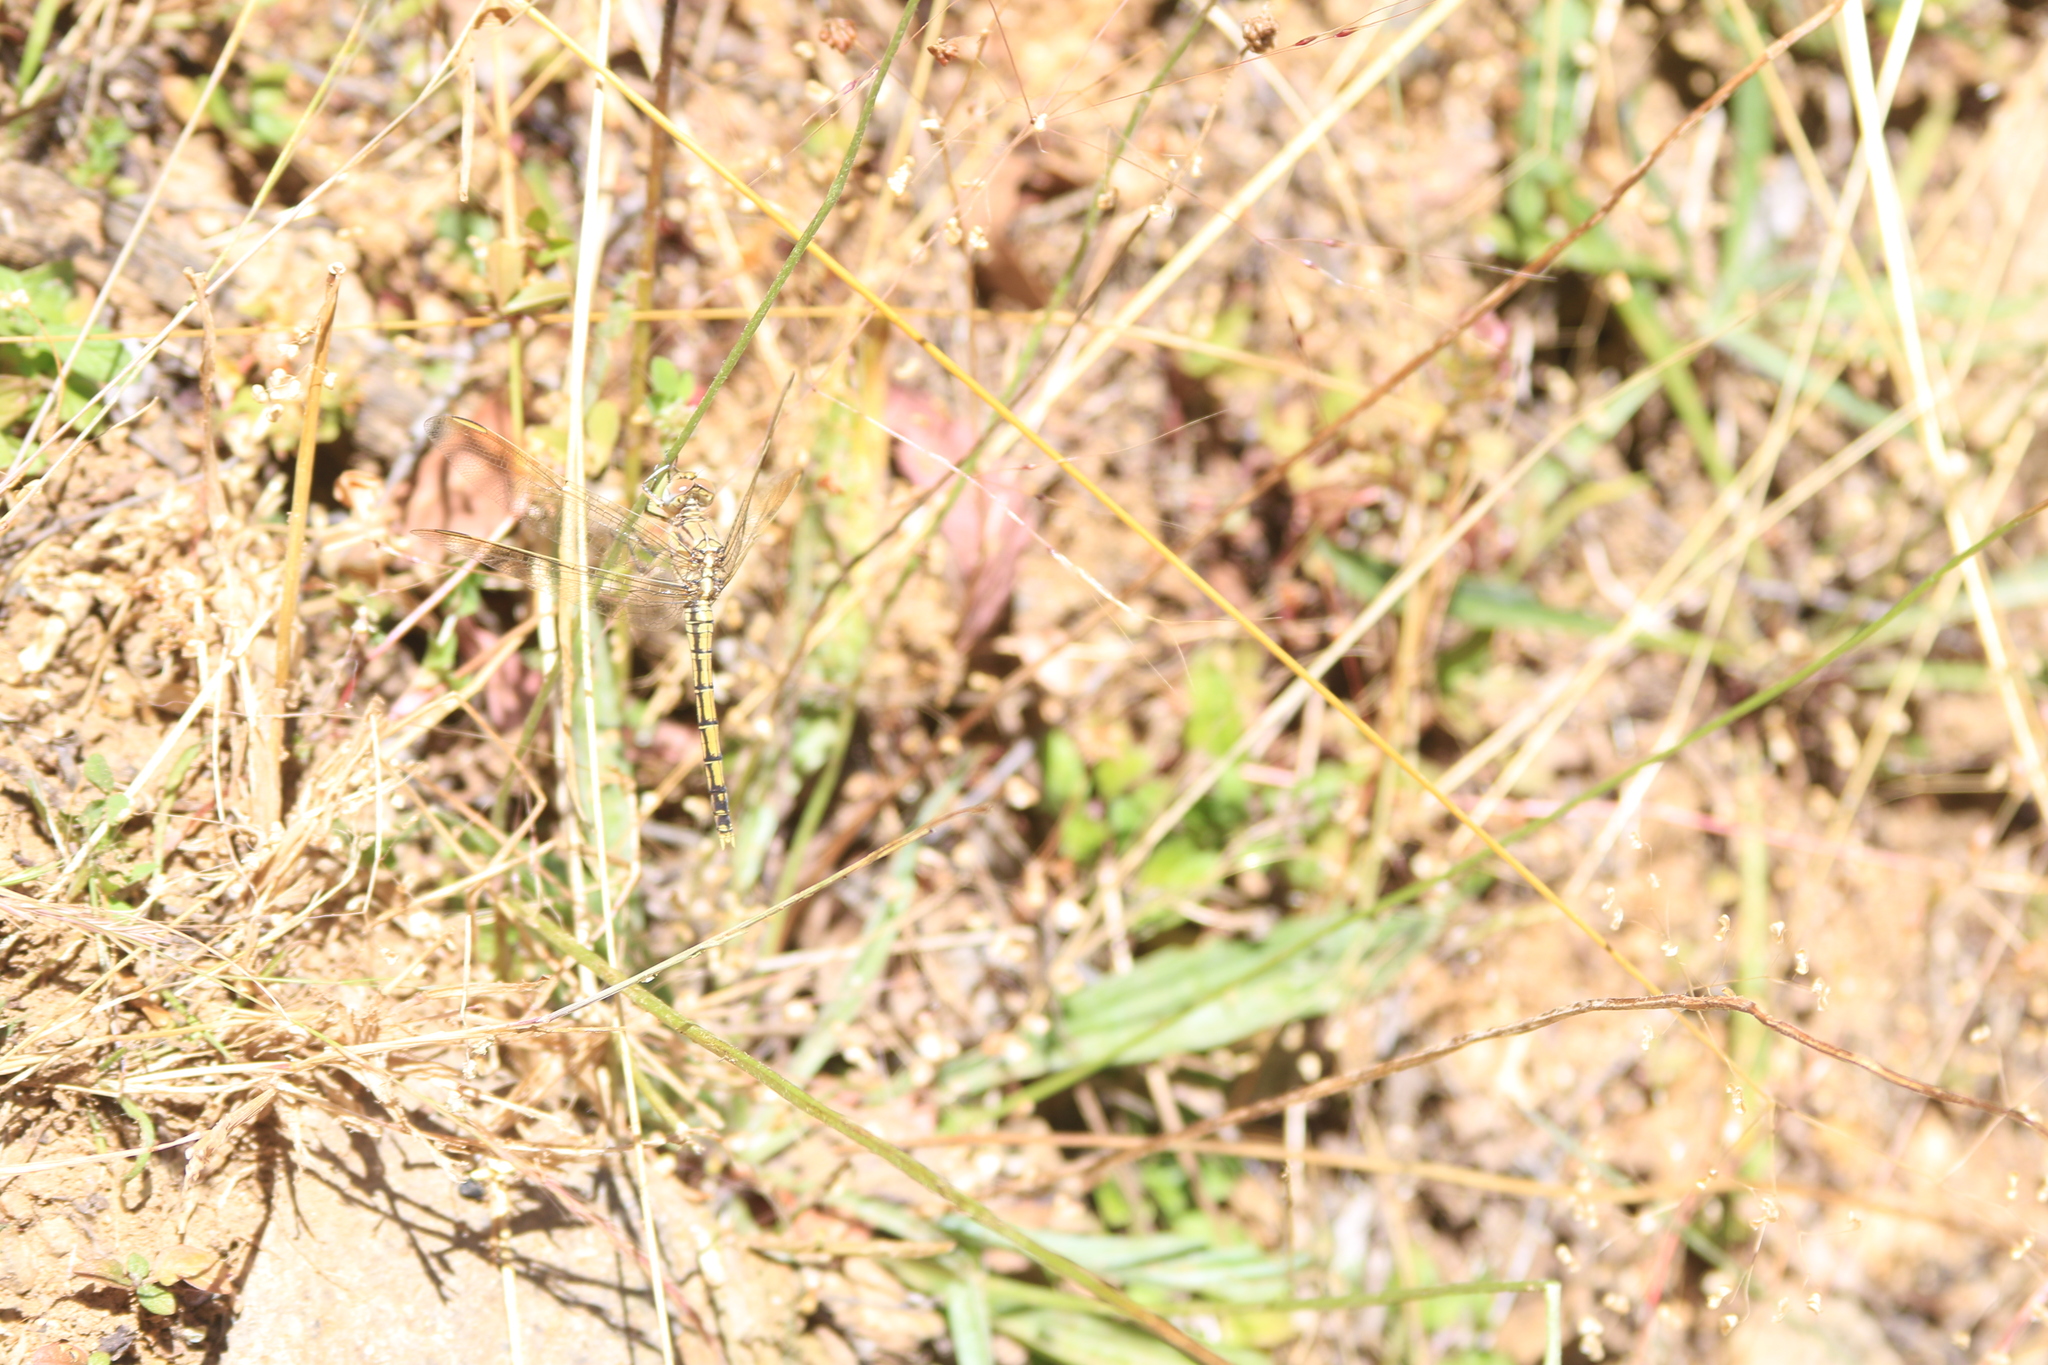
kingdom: Animalia
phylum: Arthropoda
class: Insecta
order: Odonata
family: Libellulidae
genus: Orthetrum
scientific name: Orthetrum caledonicum
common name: Blue skimmer
